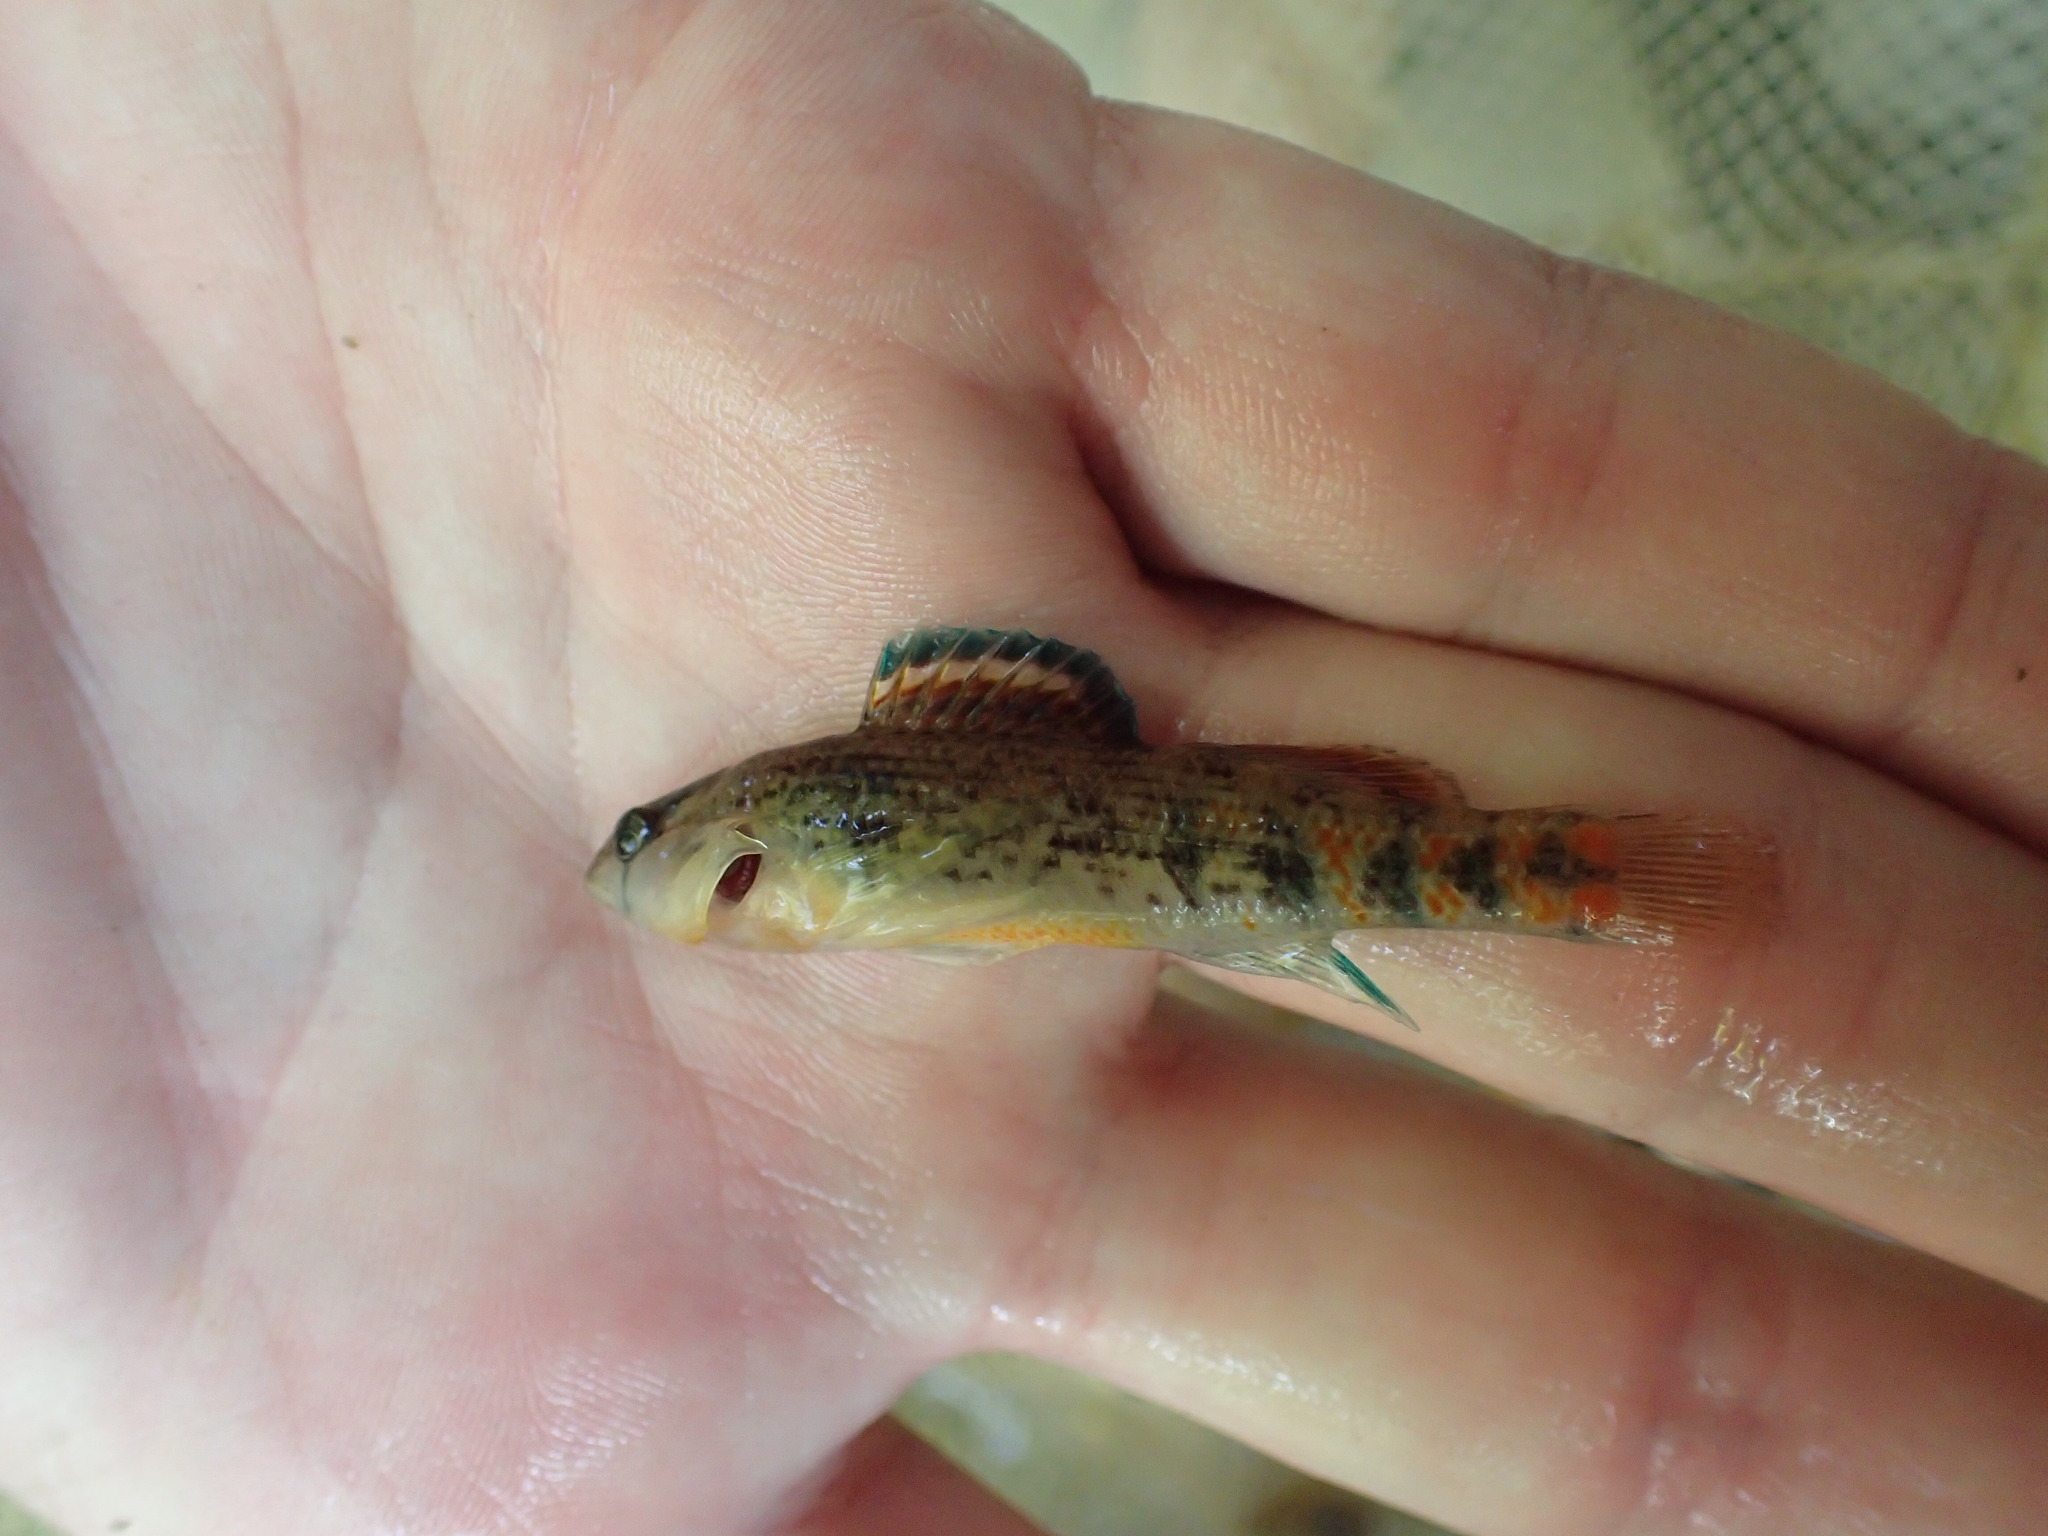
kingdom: Animalia
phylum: Chordata
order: Perciformes
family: Percidae
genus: Etheostoma
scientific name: Etheostoma spectabile
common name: Orangethroat darter
